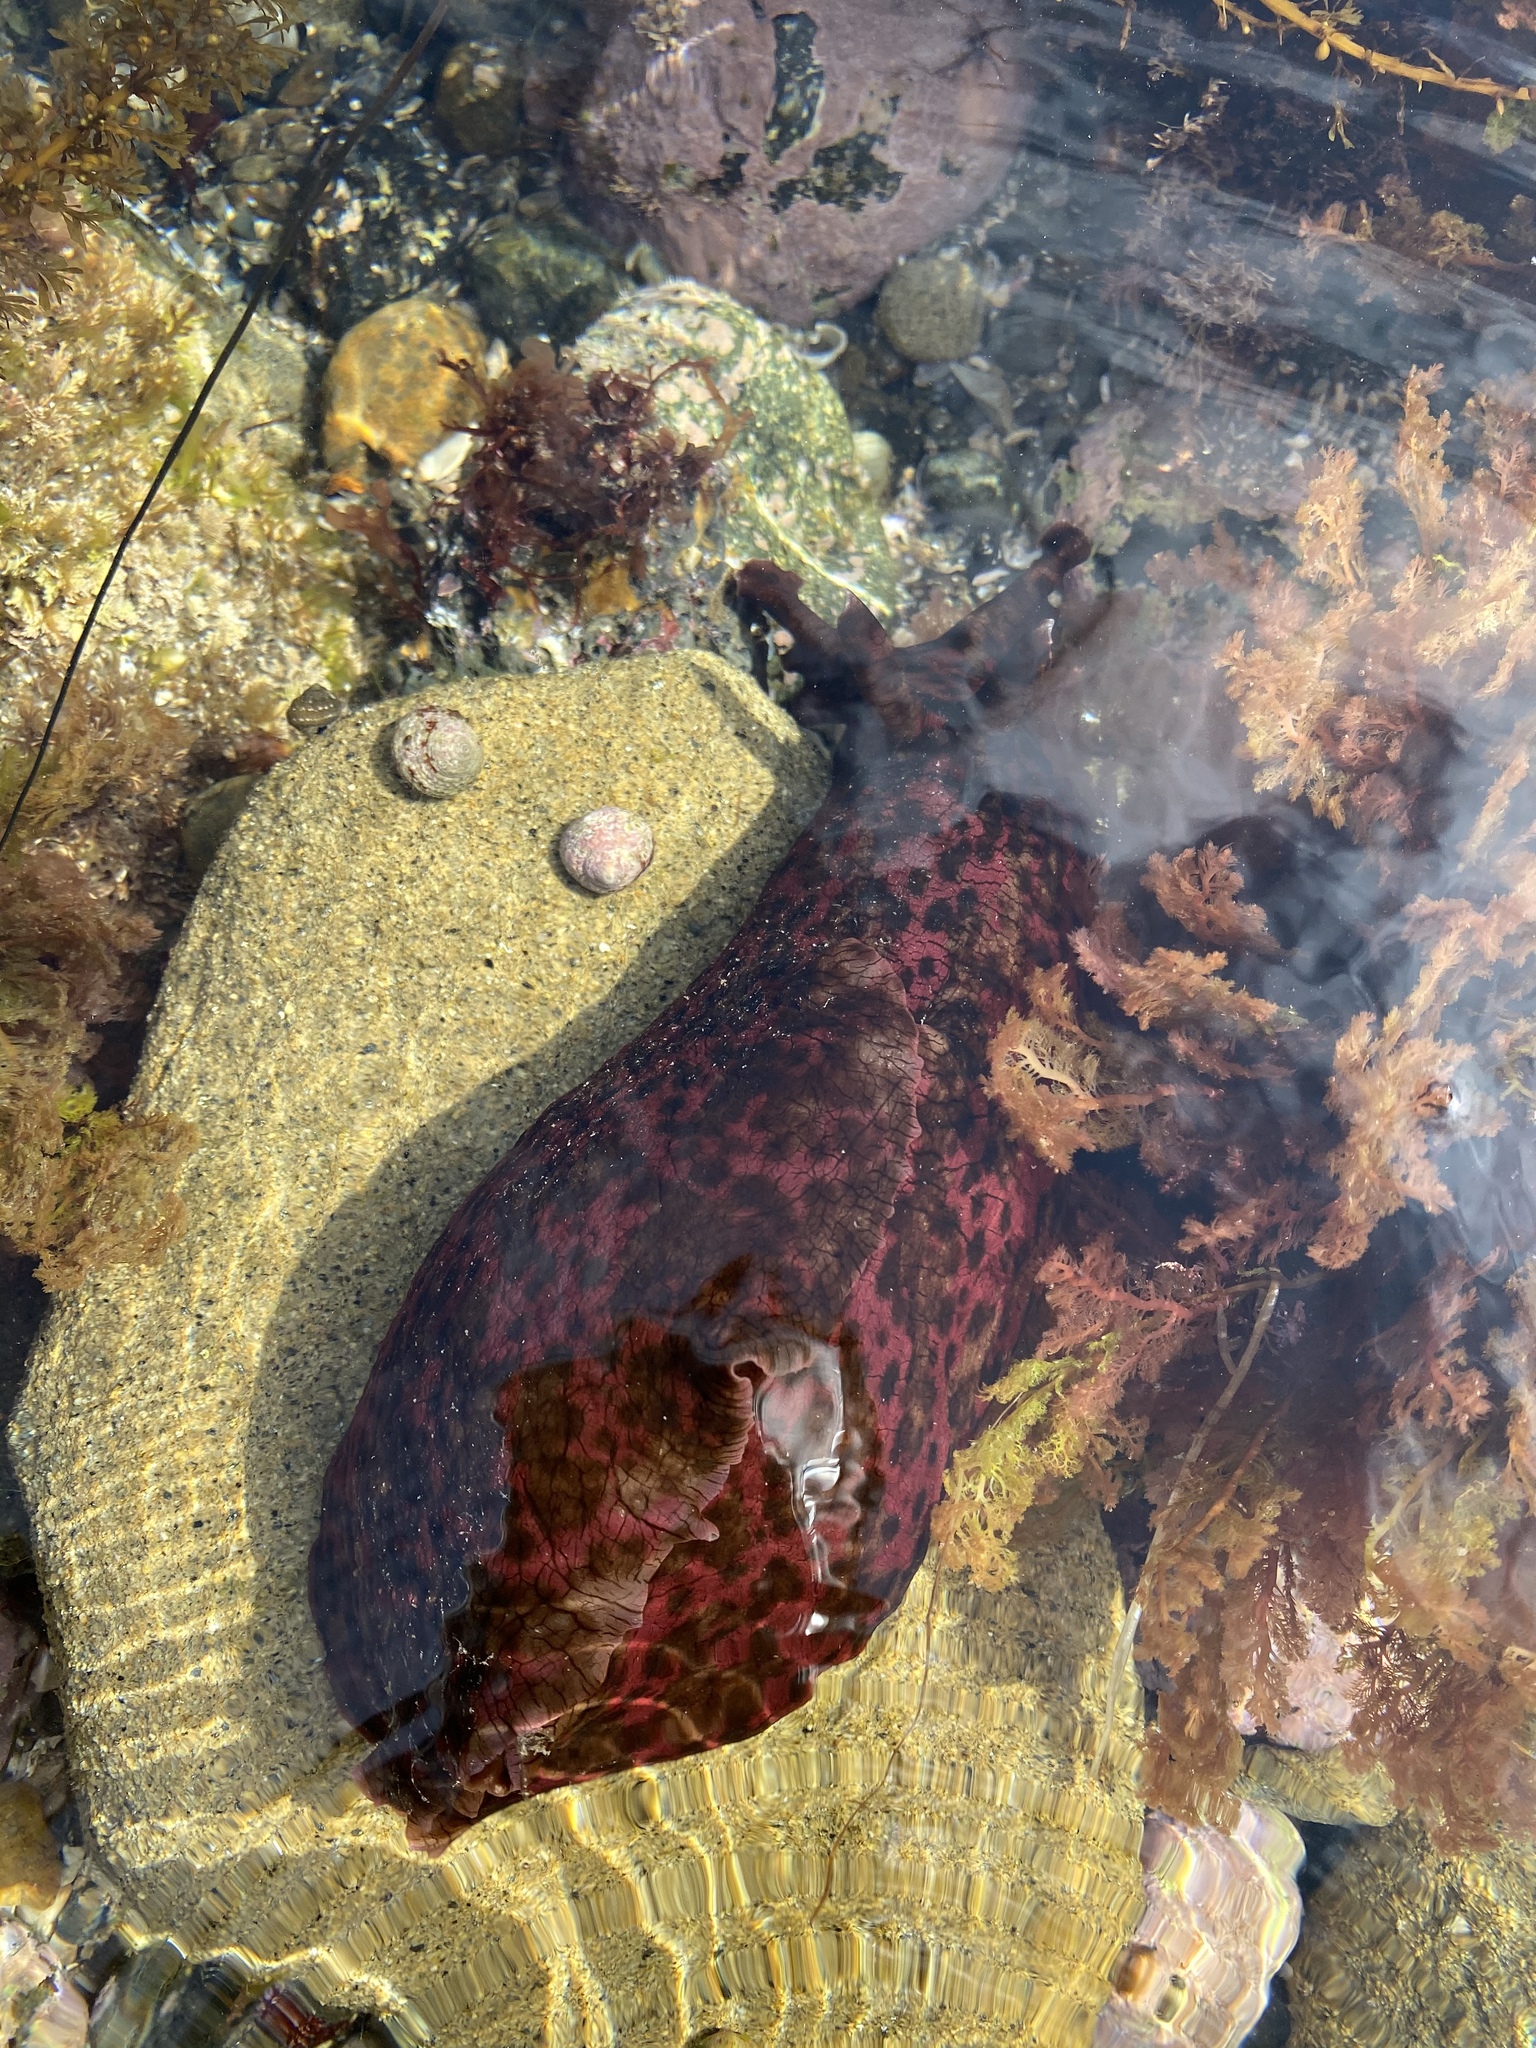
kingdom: Animalia
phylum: Mollusca
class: Gastropoda
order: Aplysiida
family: Aplysiidae
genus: Aplysia
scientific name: Aplysia californica
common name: California seahare
